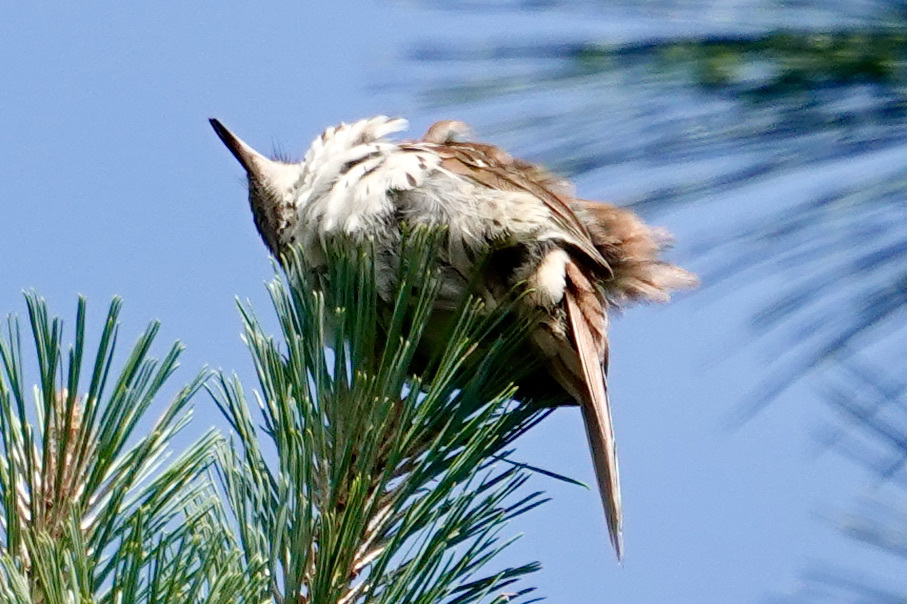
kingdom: Animalia
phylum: Chordata
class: Aves
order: Passeriformes
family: Mimidae
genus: Toxostoma
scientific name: Toxostoma rufum
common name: Brown thrasher
